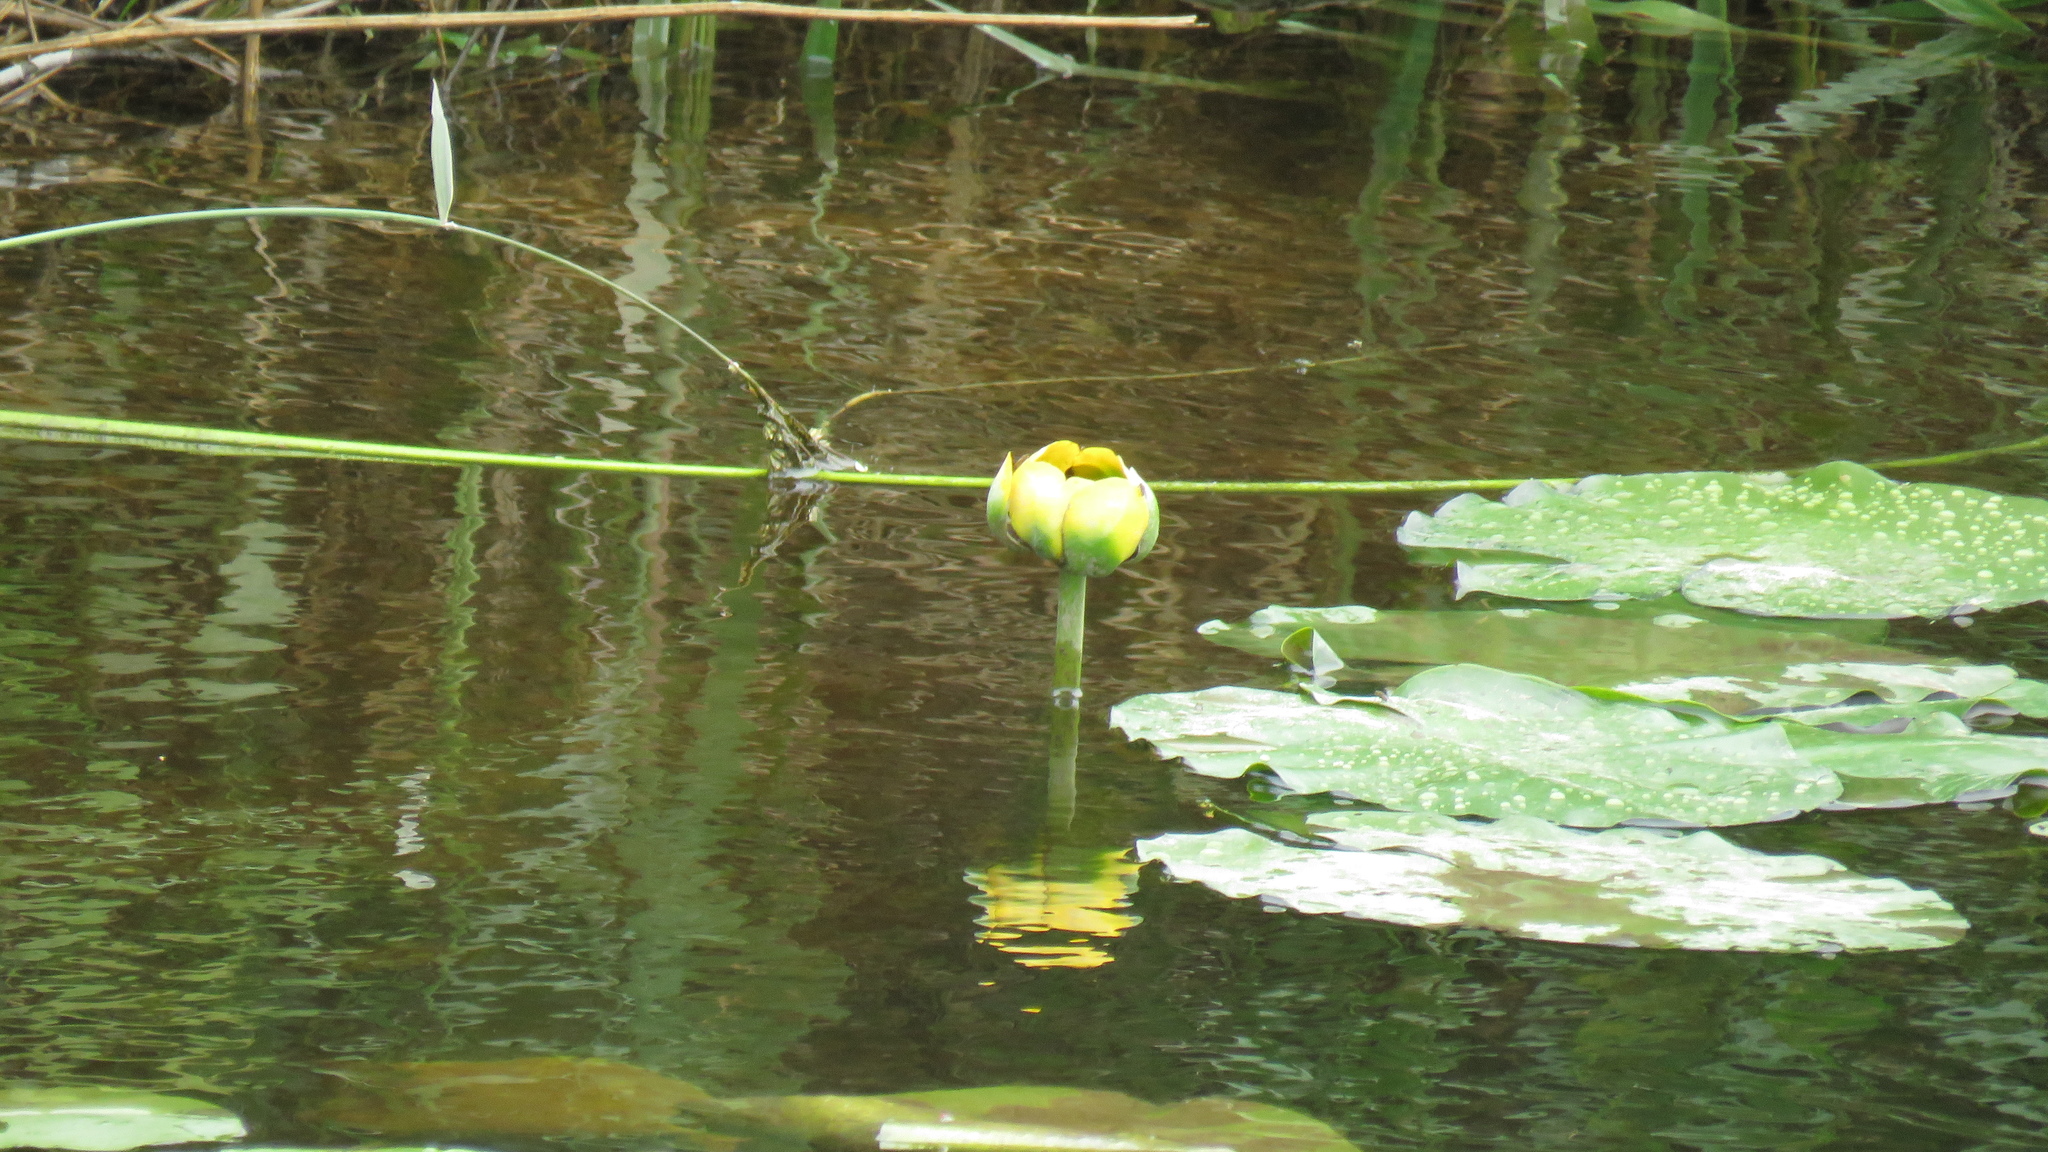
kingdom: Plantae
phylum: Tracheophyta
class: Magnoliopsida
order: Nymphaeales
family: Nymphaeaceae
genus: Nuphar
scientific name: Nuphar variegata
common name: Beaver-root
